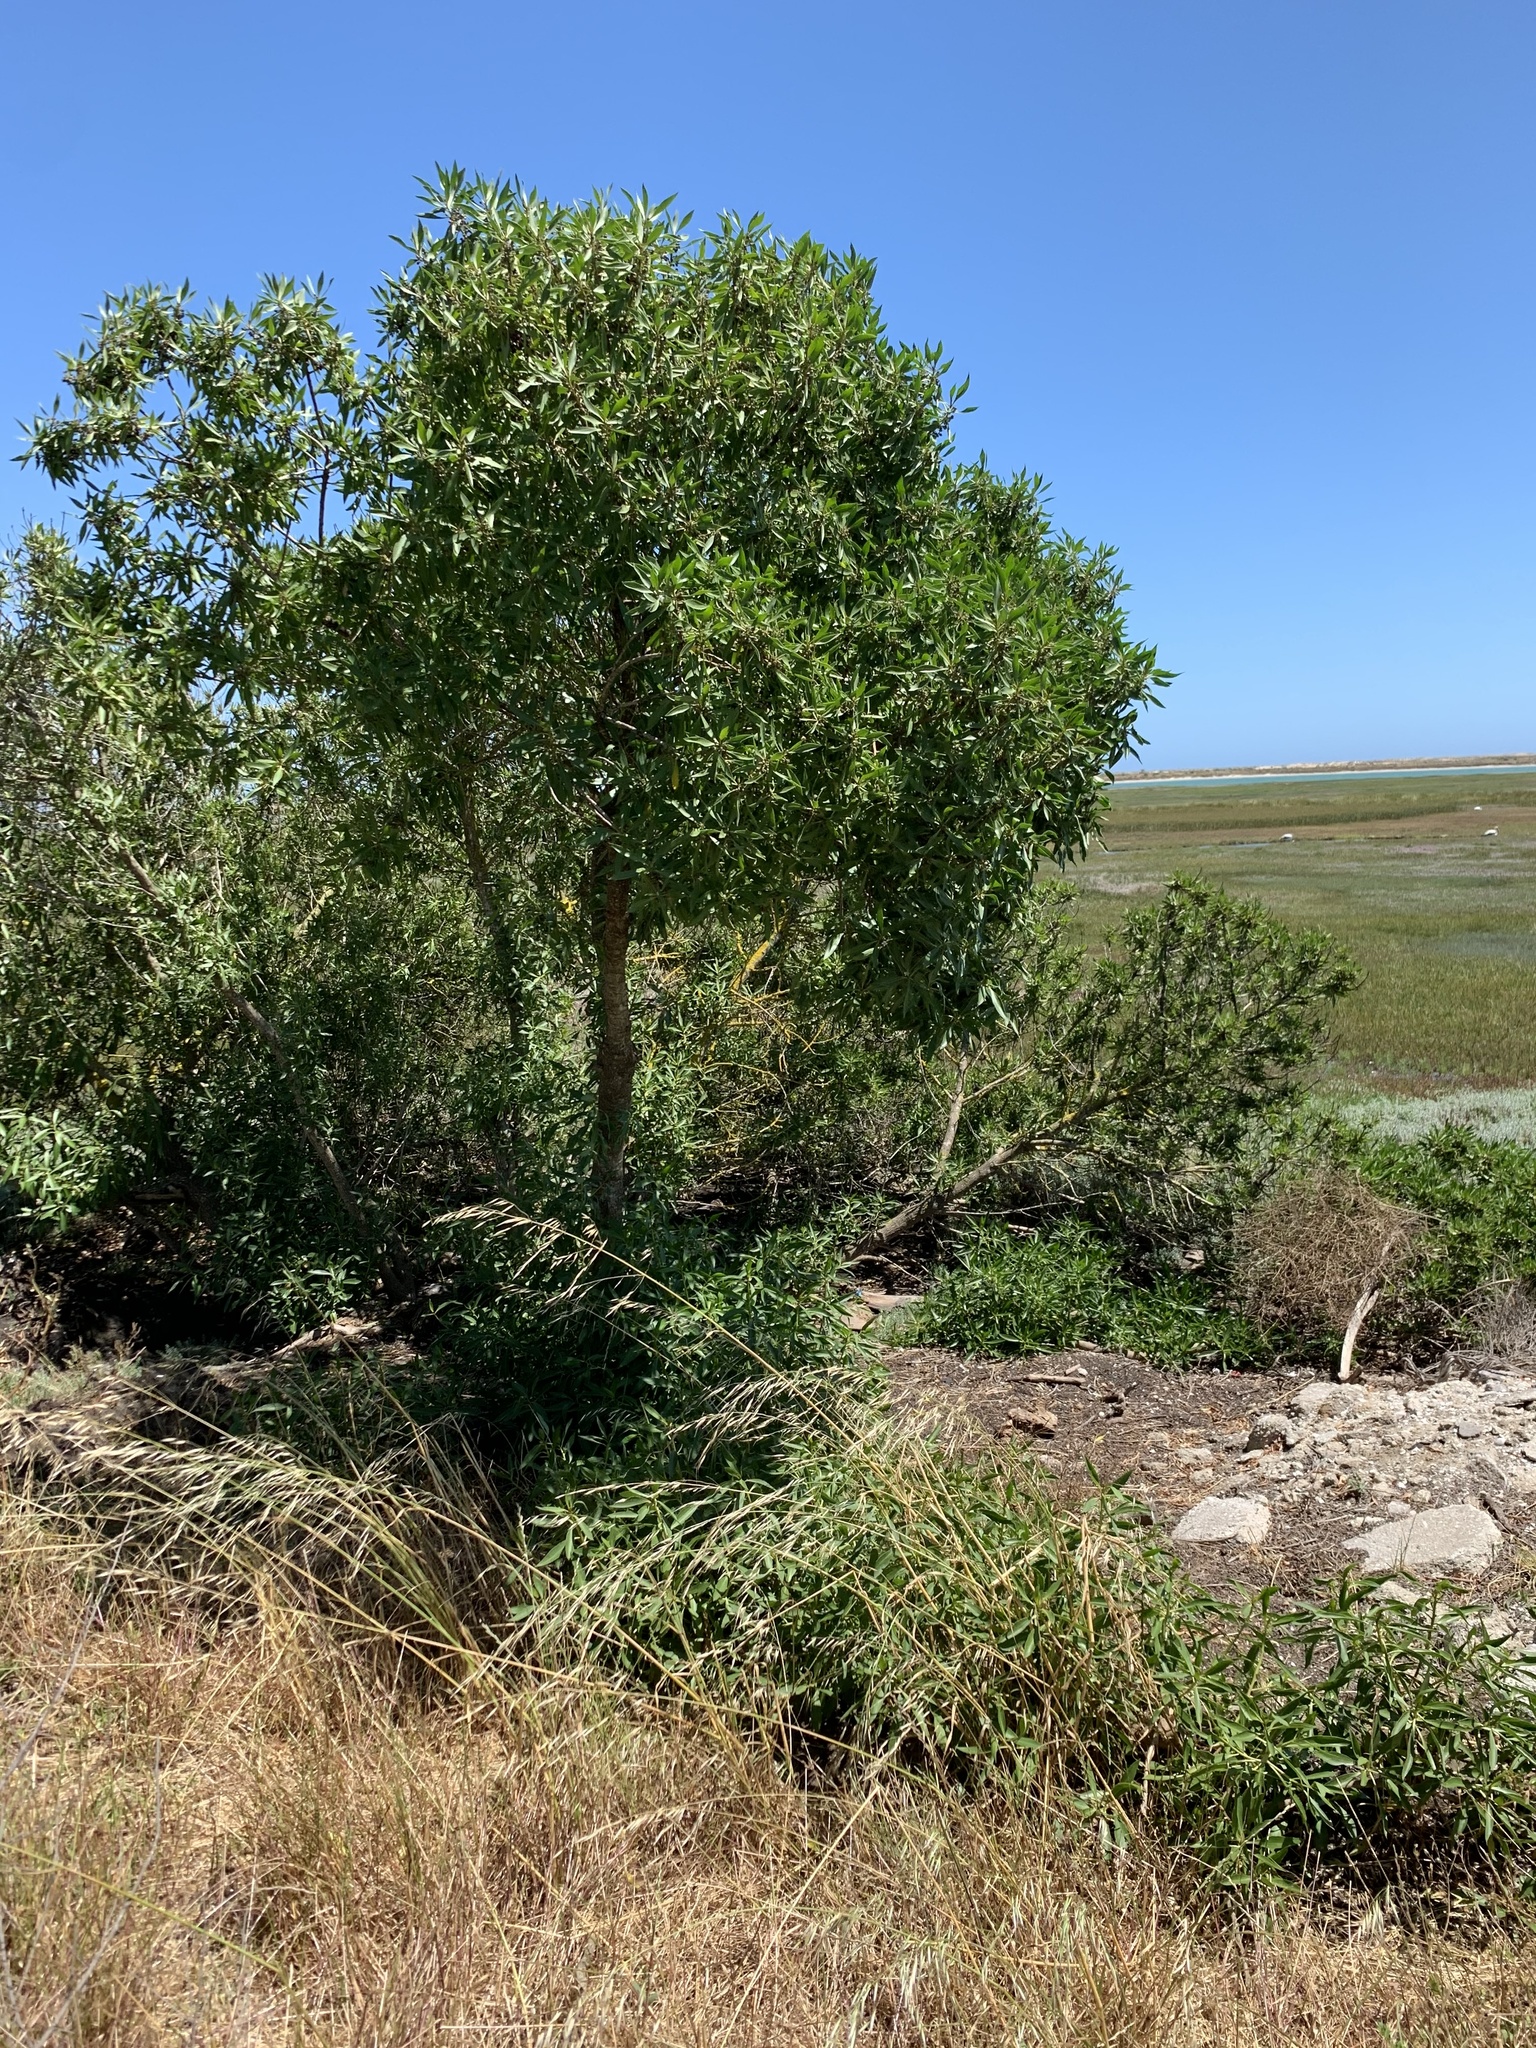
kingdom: Plantae
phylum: Tracheophyta
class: Magnoliopsida
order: Lamiales
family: Scrophulariaceae
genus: Myoporum
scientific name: Myoporum montanum
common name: Waterbush
